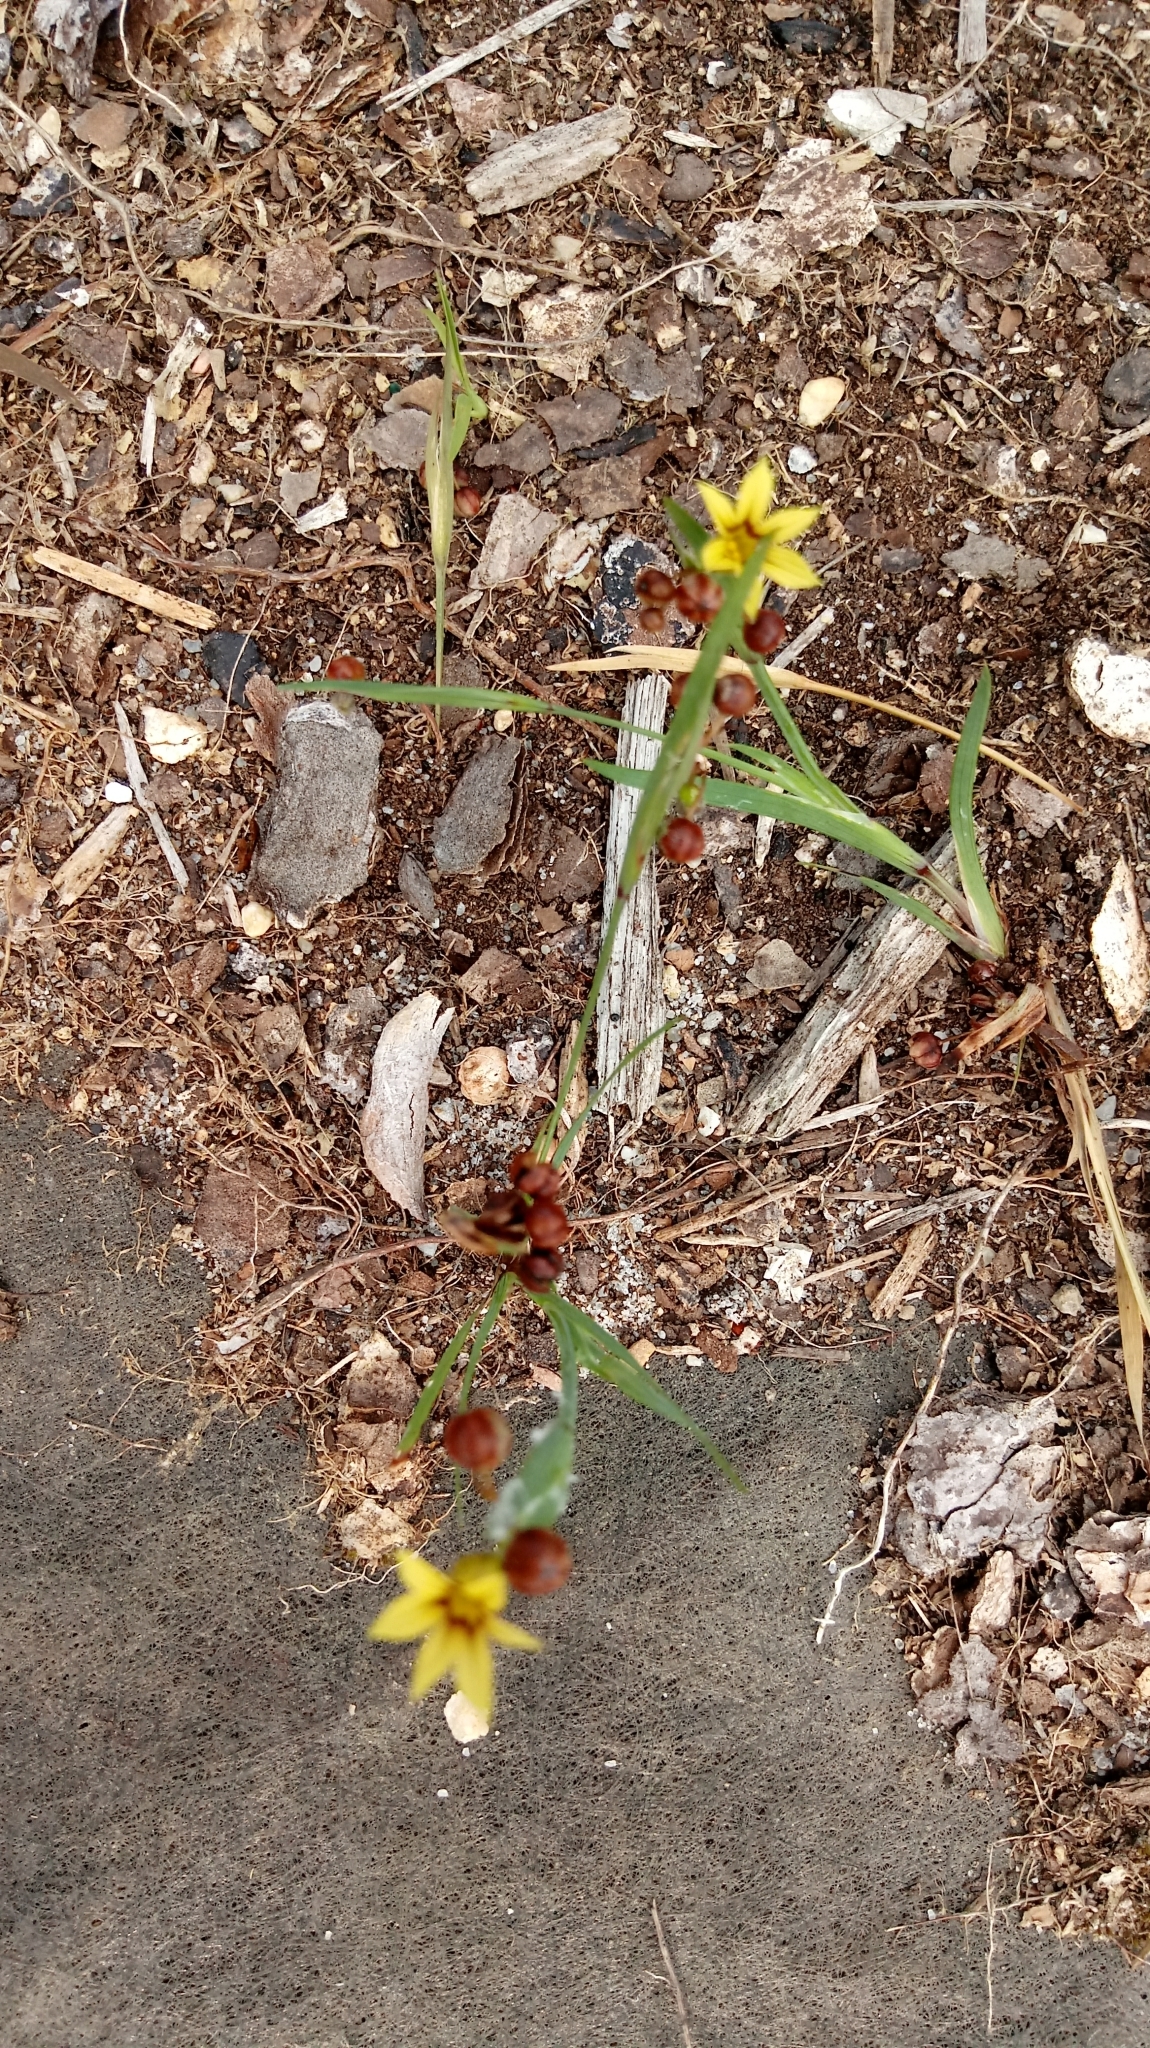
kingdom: Plantae
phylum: Tracheophyta
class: Liliopsida
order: Asparagales
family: Iridaceae
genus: Sisyrinchium
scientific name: Sisyrinchium micranthum
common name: Bermuda pigroot
